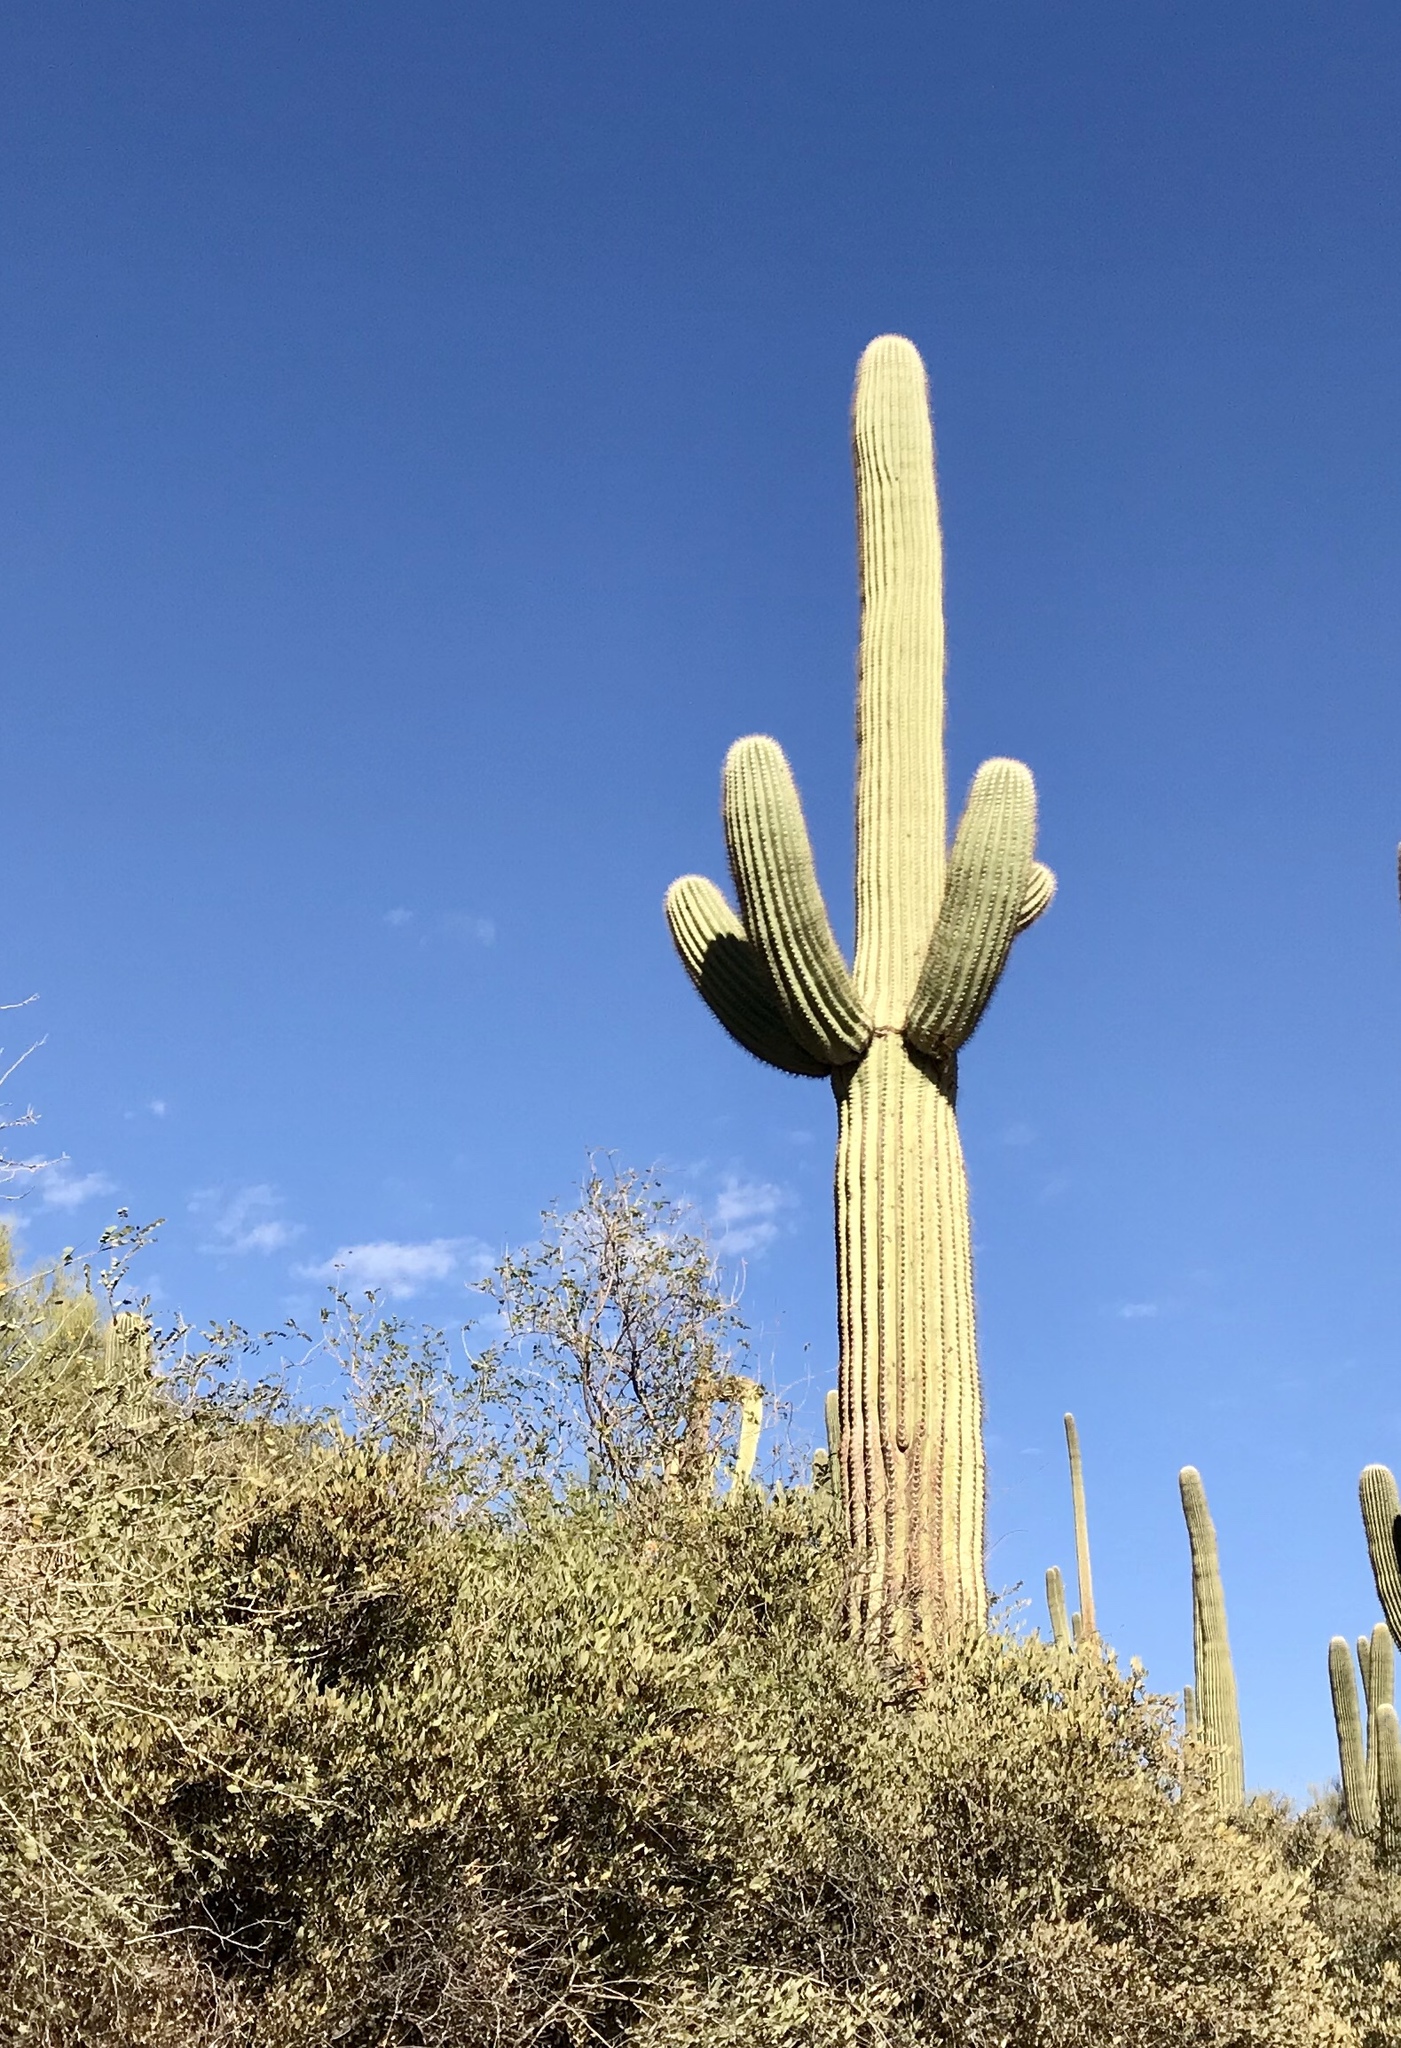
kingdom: Plantae
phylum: Tracheophyta
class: Magnoliopsida
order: Caryophyllales
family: Cactaceae
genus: Carnegiea
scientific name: Carnegiea gigantea
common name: Saguaro
